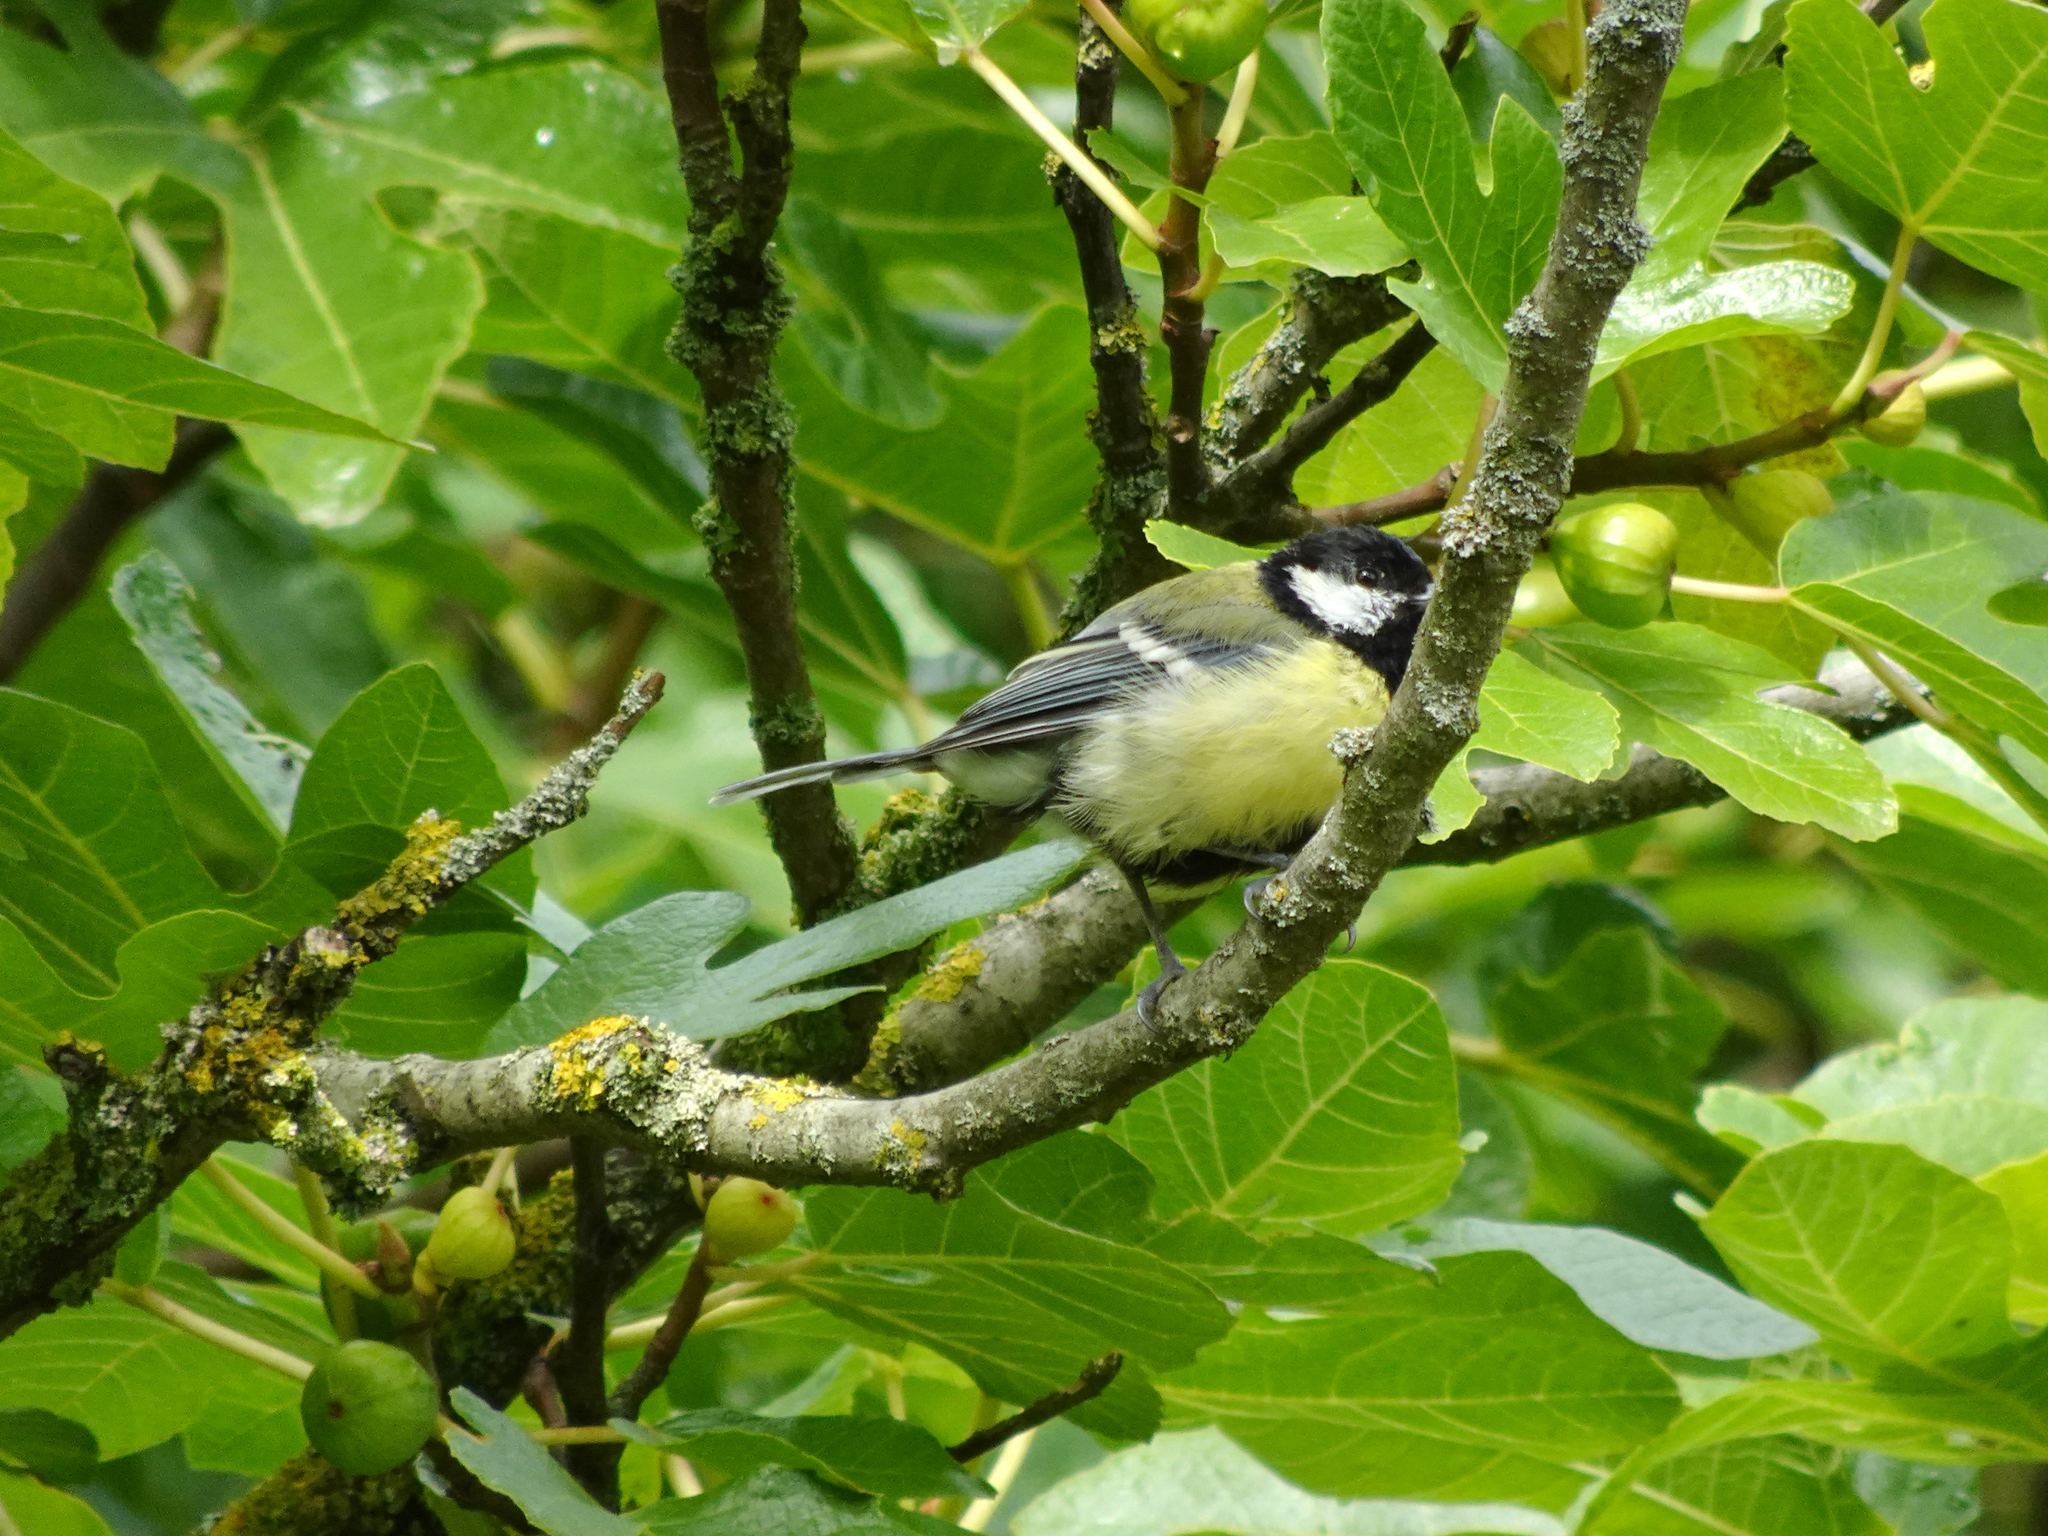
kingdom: Animalia
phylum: Chordata
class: Aves
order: Passeriformes
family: Paridae
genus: Parus
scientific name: Parus major
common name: Great tit
